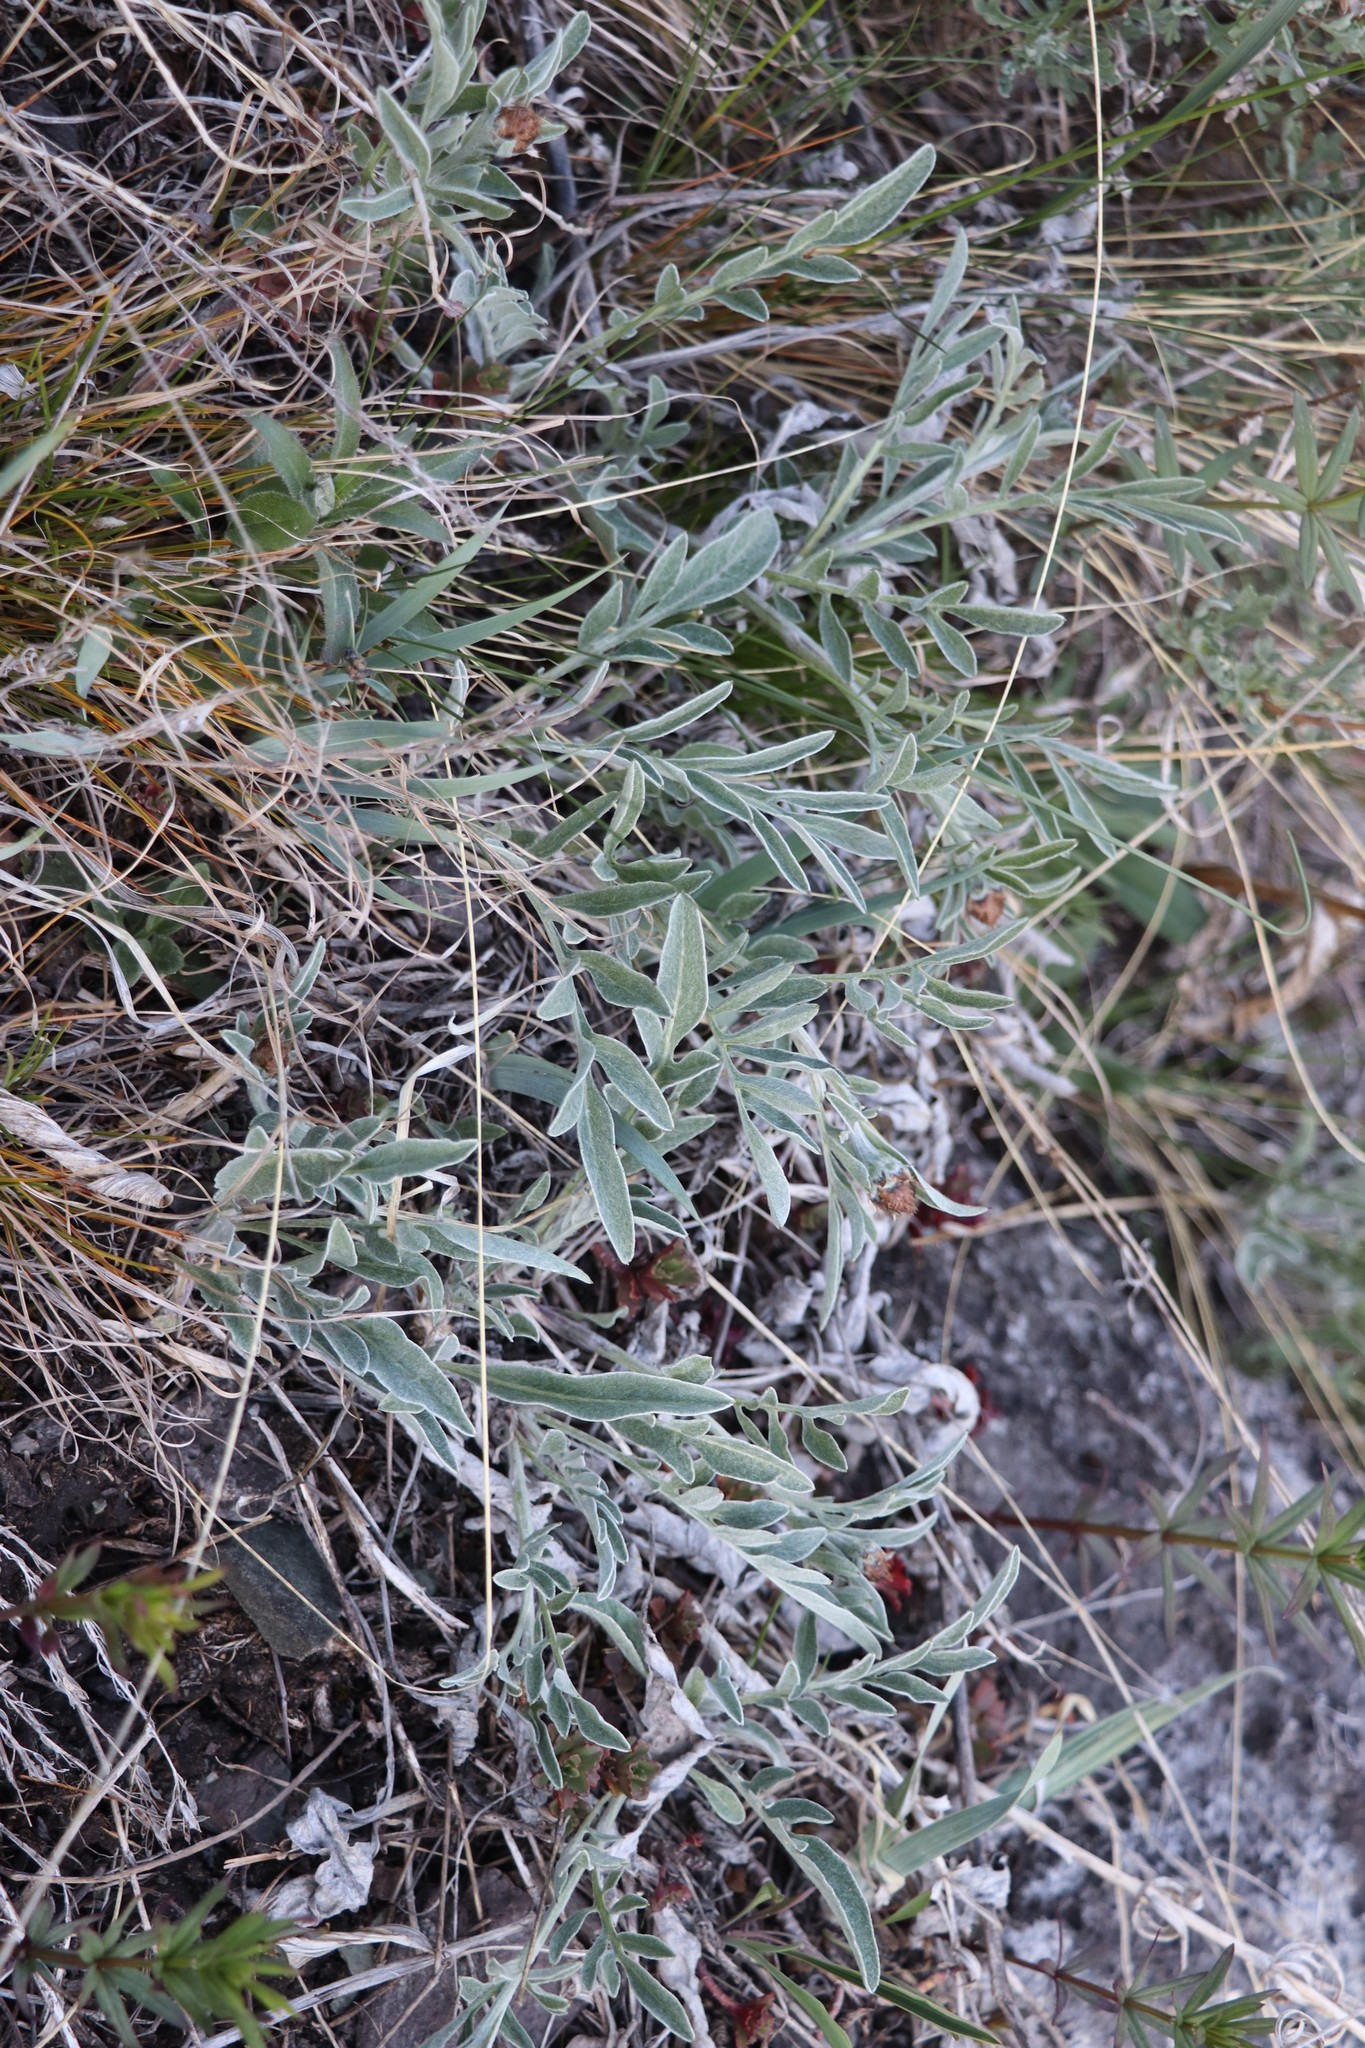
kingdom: Plantae
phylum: Tracheophyta
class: Magnoliopsida
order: Asterales
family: Asteraceae
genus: Psephellus
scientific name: Psephellus sibiricus
